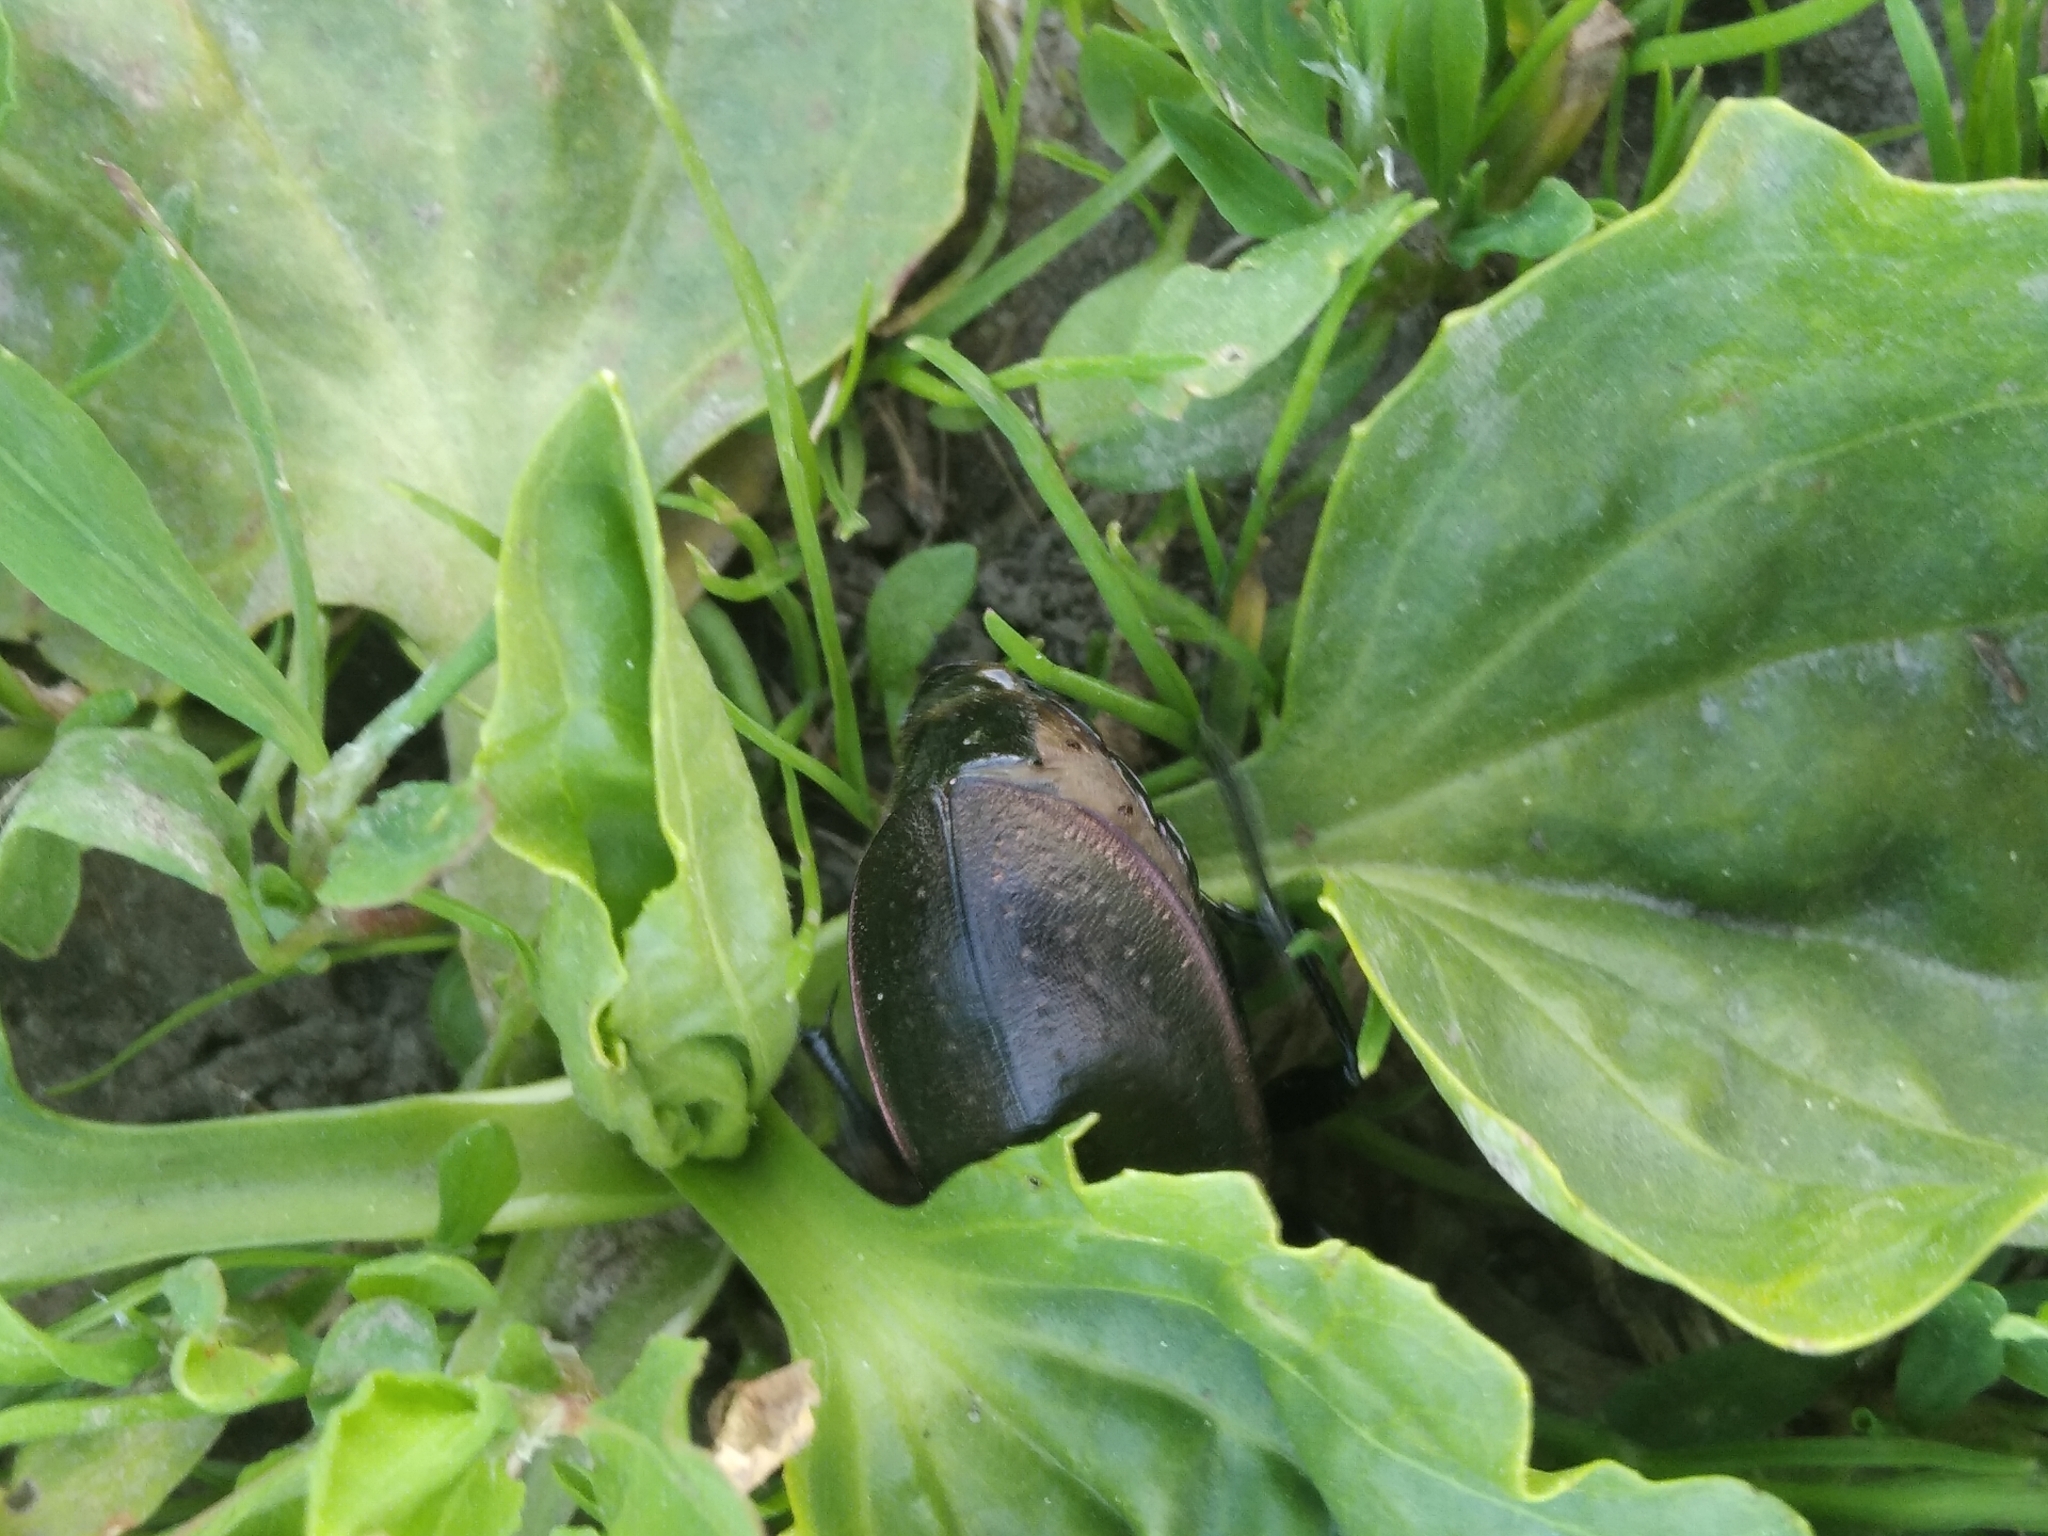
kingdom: Animalia
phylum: Arthropoda
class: Insecta
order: Coleoptera
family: Carabidae
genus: Carabus
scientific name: Carabus nemoralis
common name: European ground beetle
